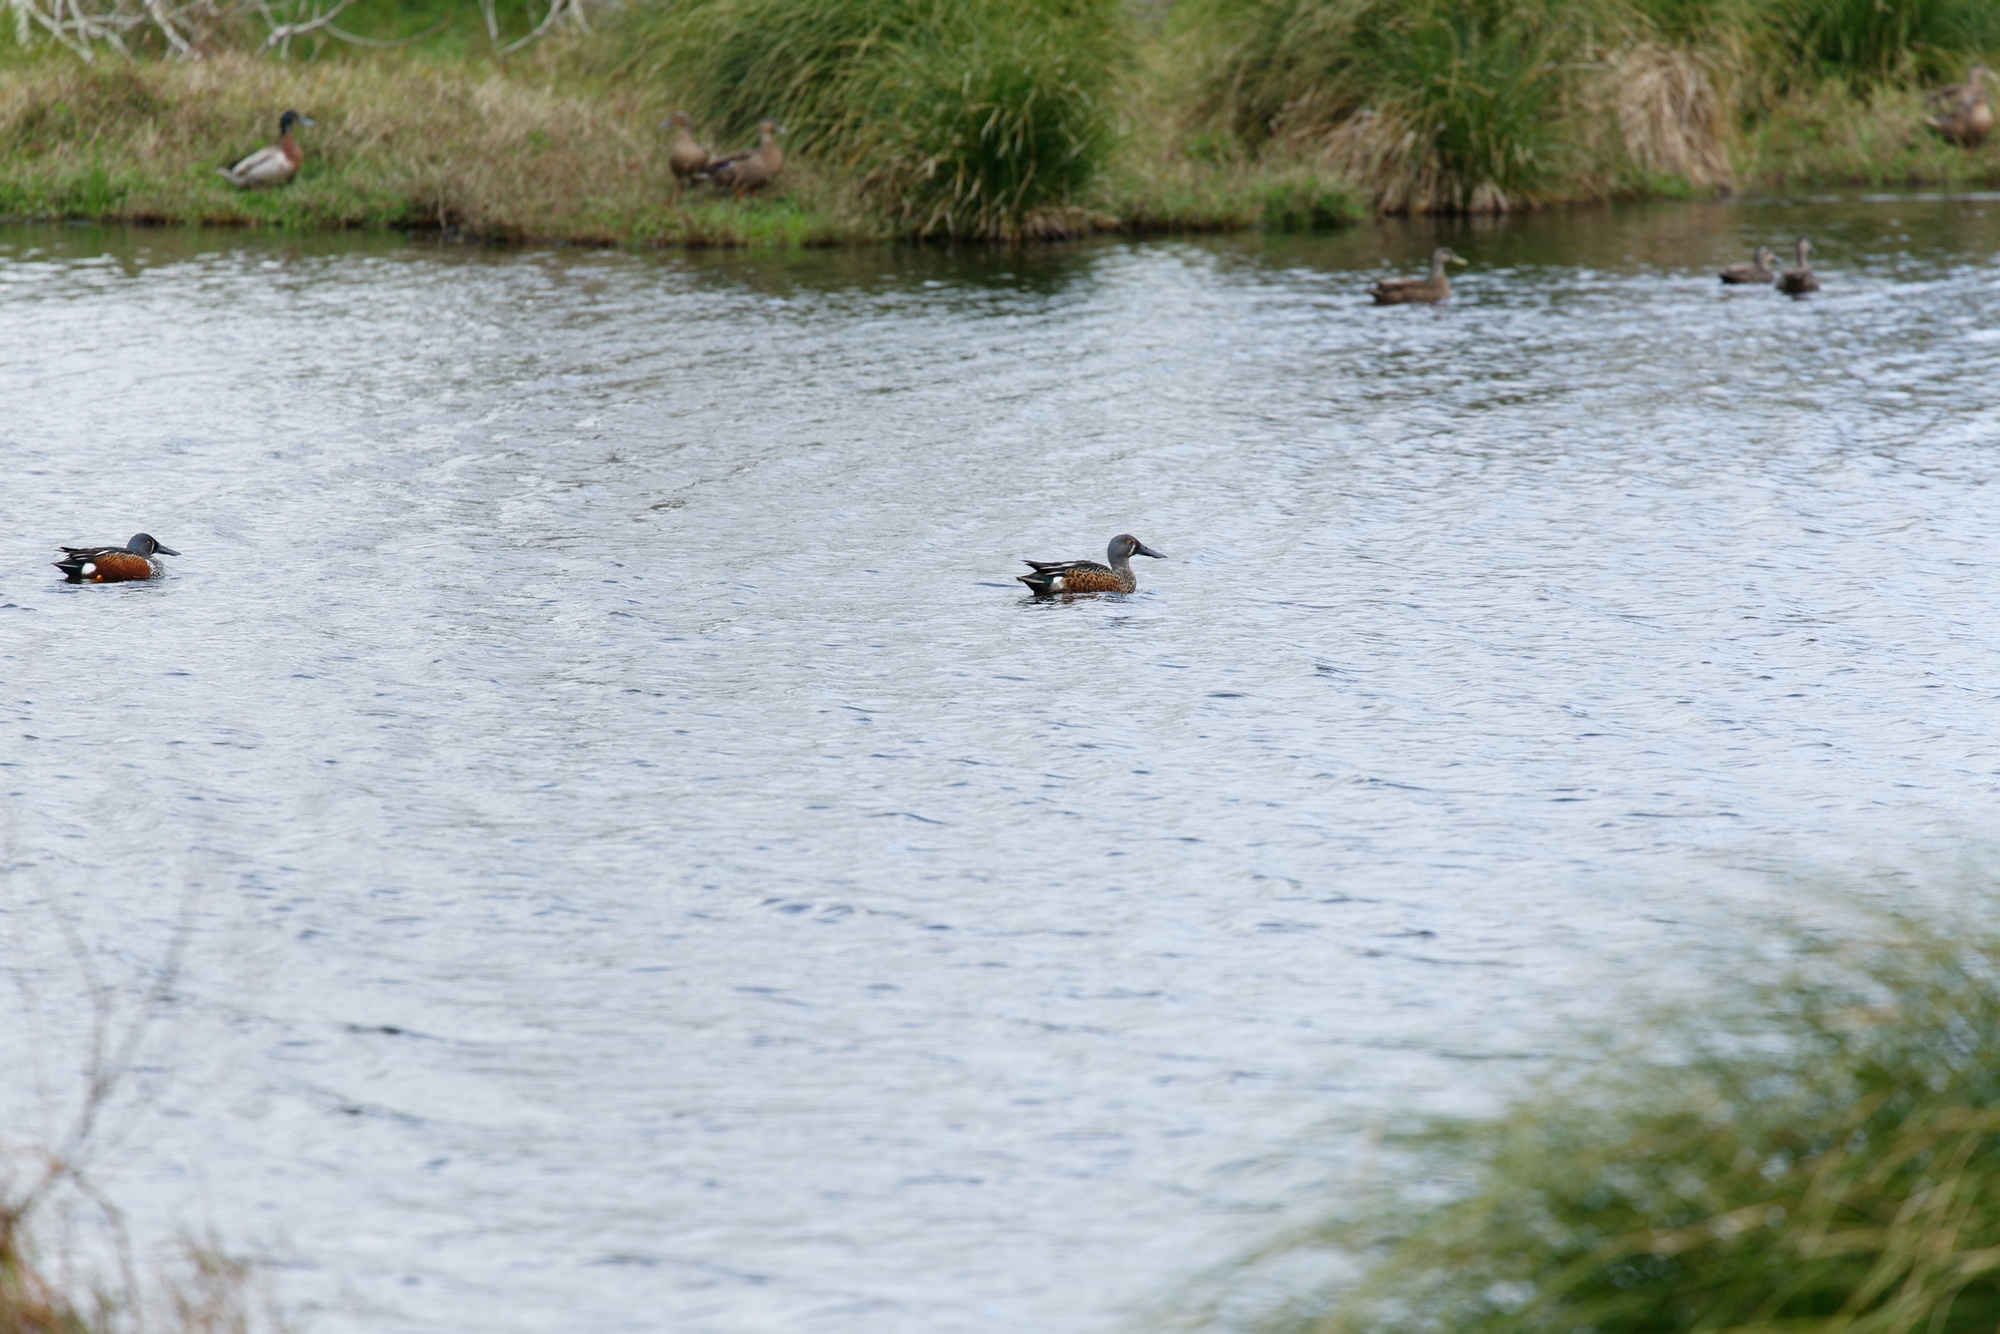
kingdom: Animalia
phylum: Chordata
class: Aves
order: Anseriformes
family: Anatidae
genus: Spatula
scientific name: Spatula rhynchotis
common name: Australian shoveler
